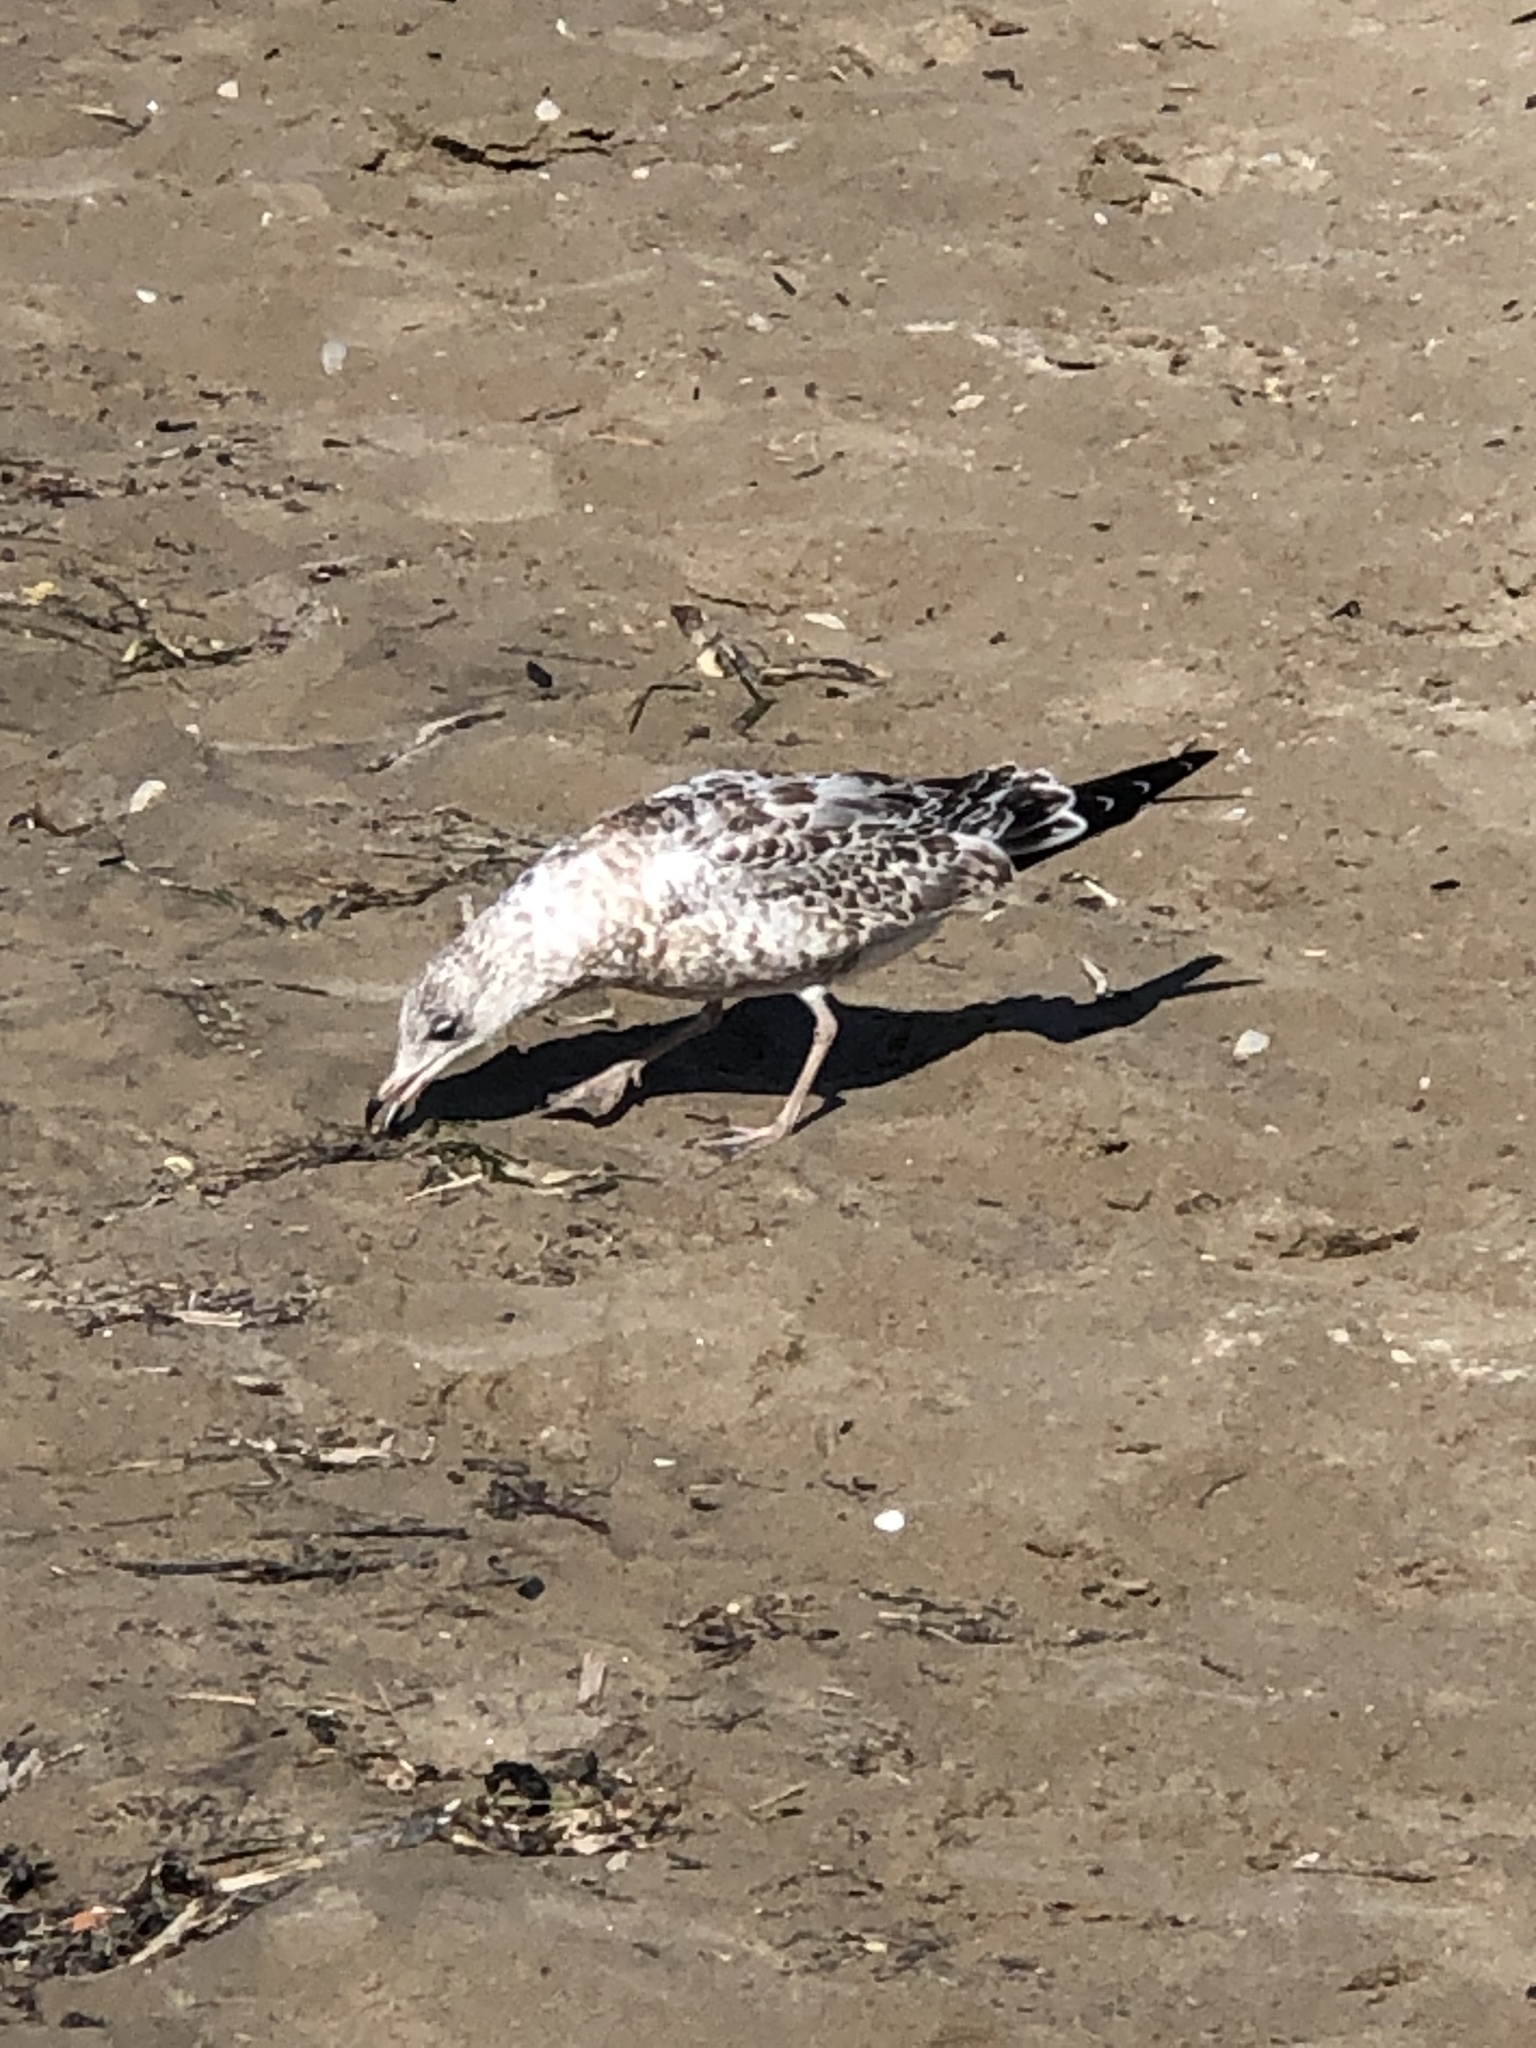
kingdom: Animalia
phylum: Chordata
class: Aves
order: Charadriiformes
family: Laridae
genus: Larus
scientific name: Larus delawarensis
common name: Ring-billed gull
